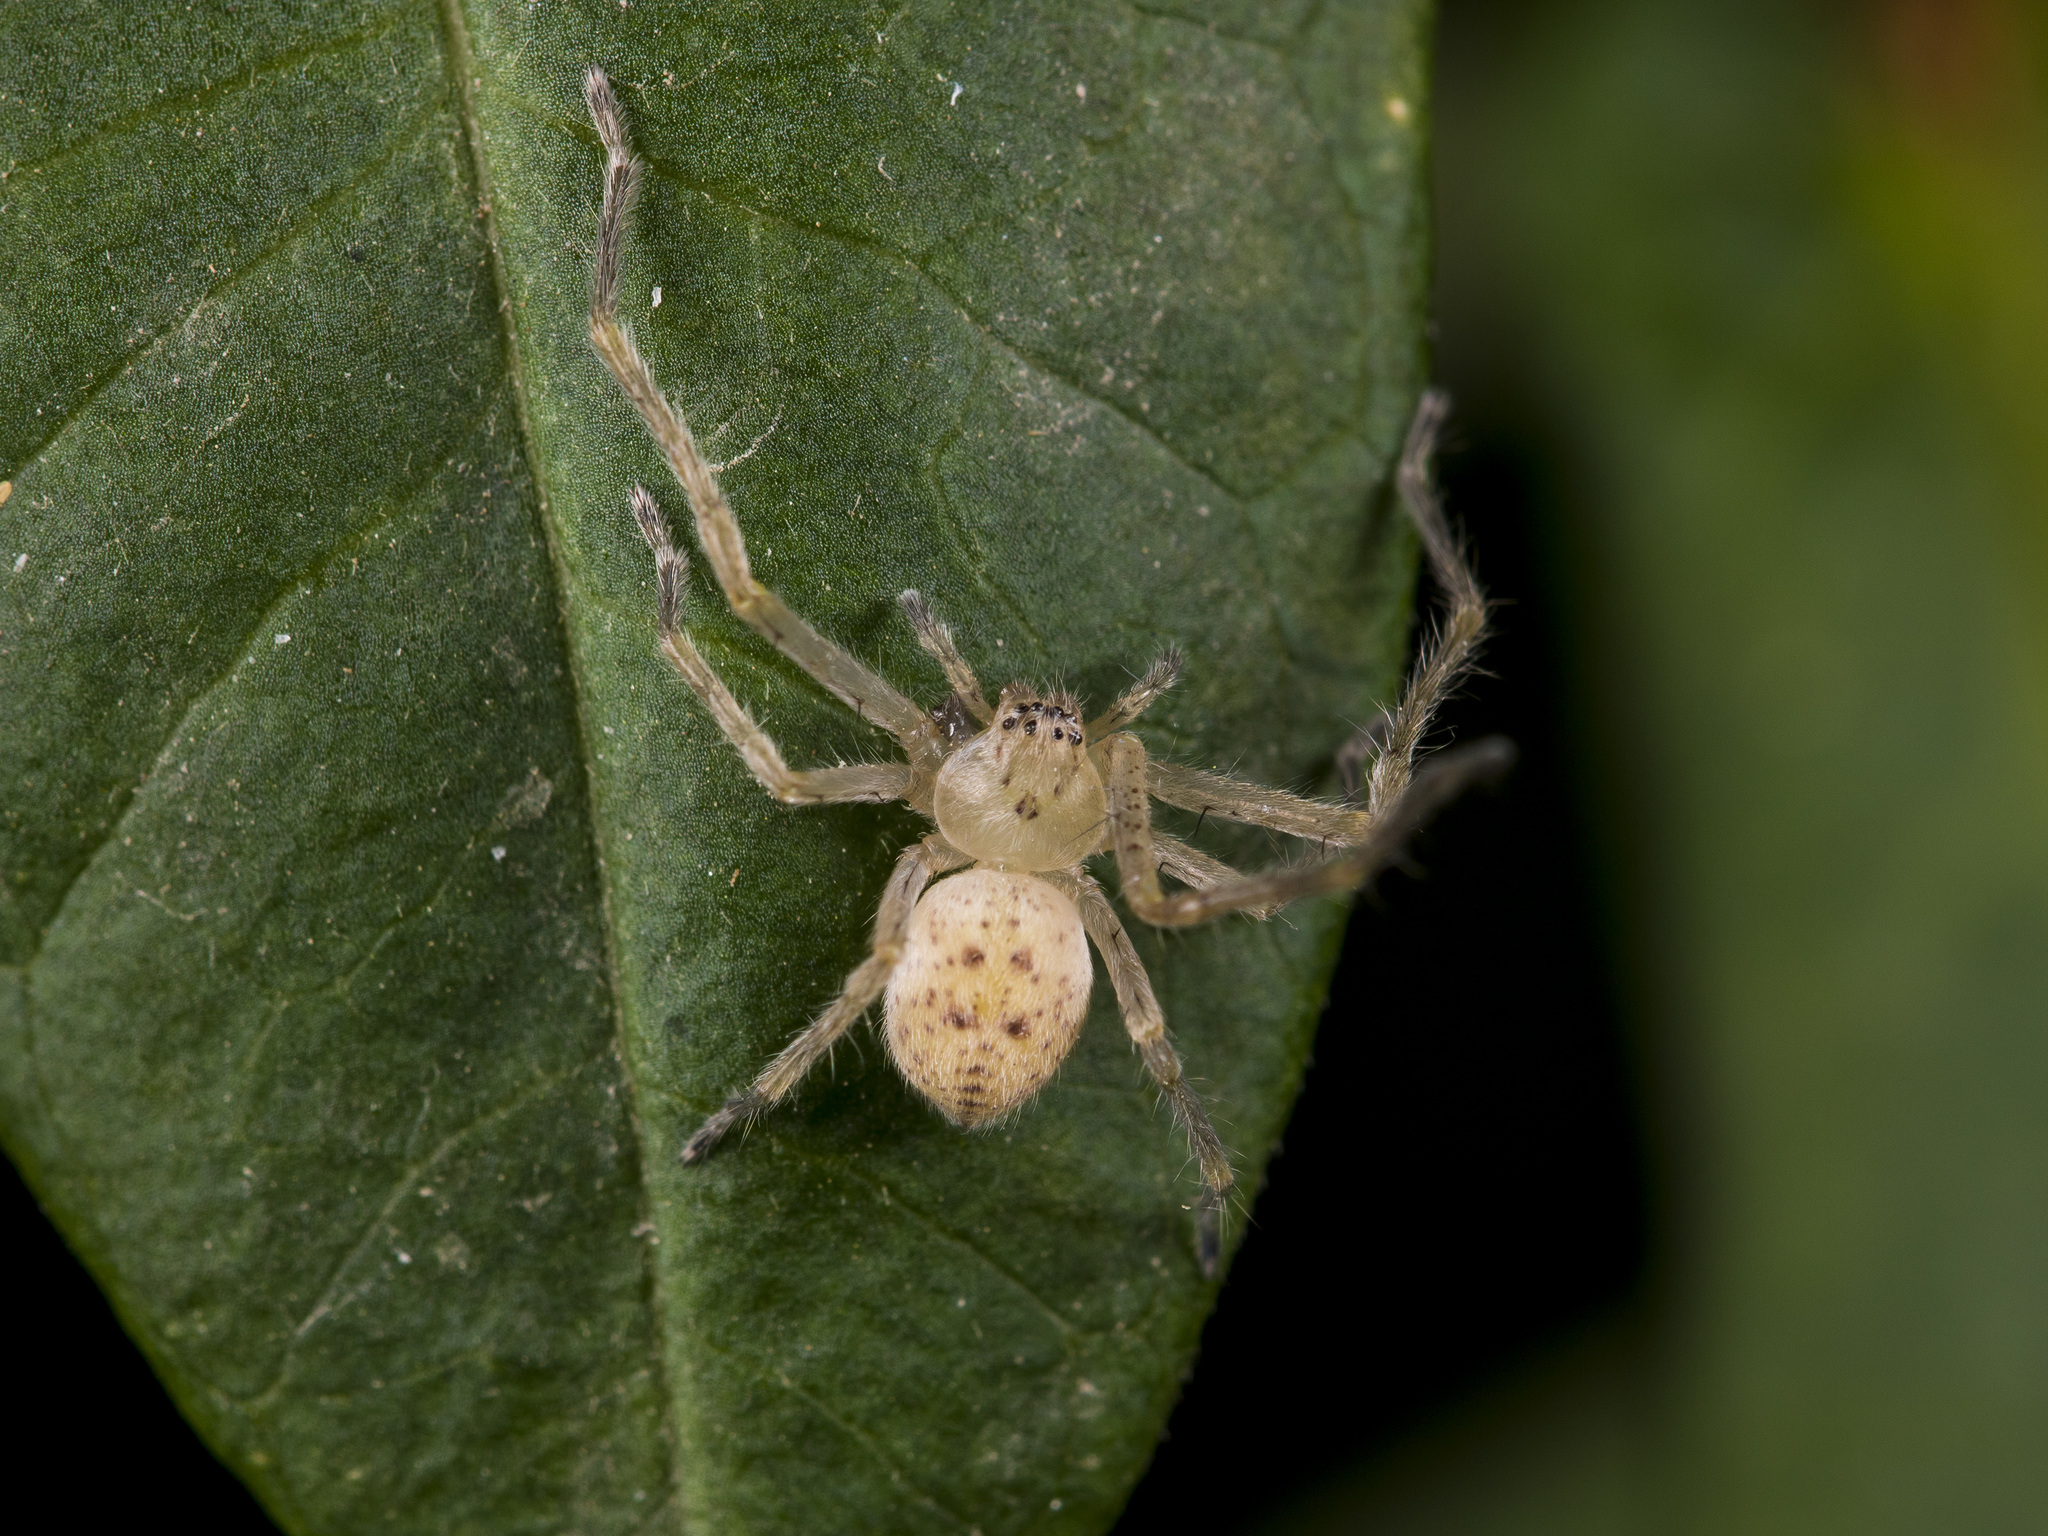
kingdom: Animalia
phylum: Arthropoda
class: Arachnida
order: Araneae
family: Sparassidae
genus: Olios
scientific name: Olios sericeus
